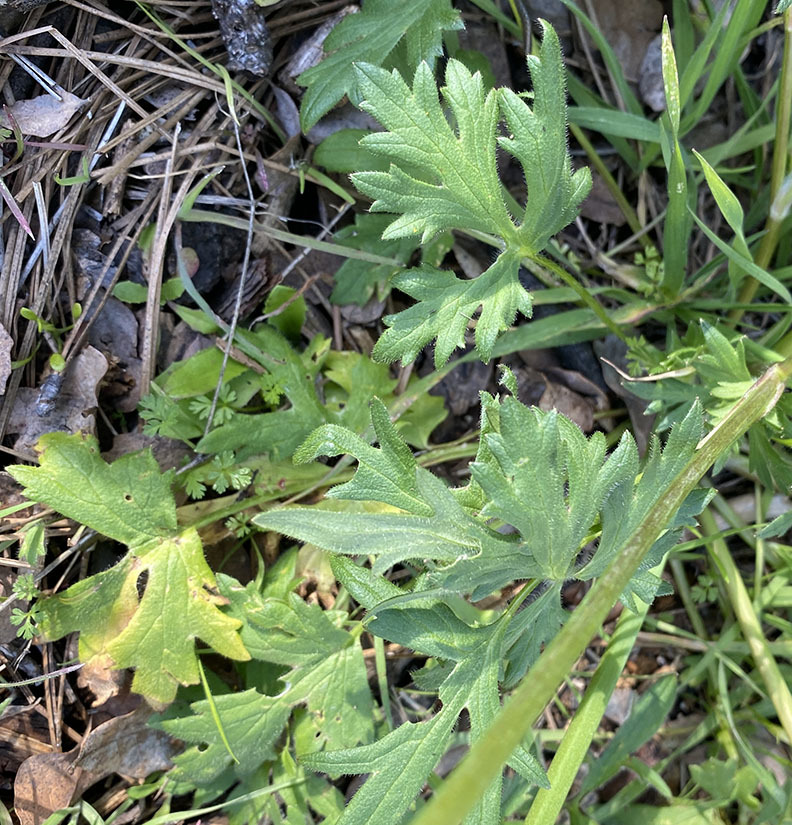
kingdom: Plantae
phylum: Tracheophyta
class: Magnoliopsida
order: Ranunculales
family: Ranunculaceae
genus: Ranunculus
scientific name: Ranunculus californicus
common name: California buttercup
